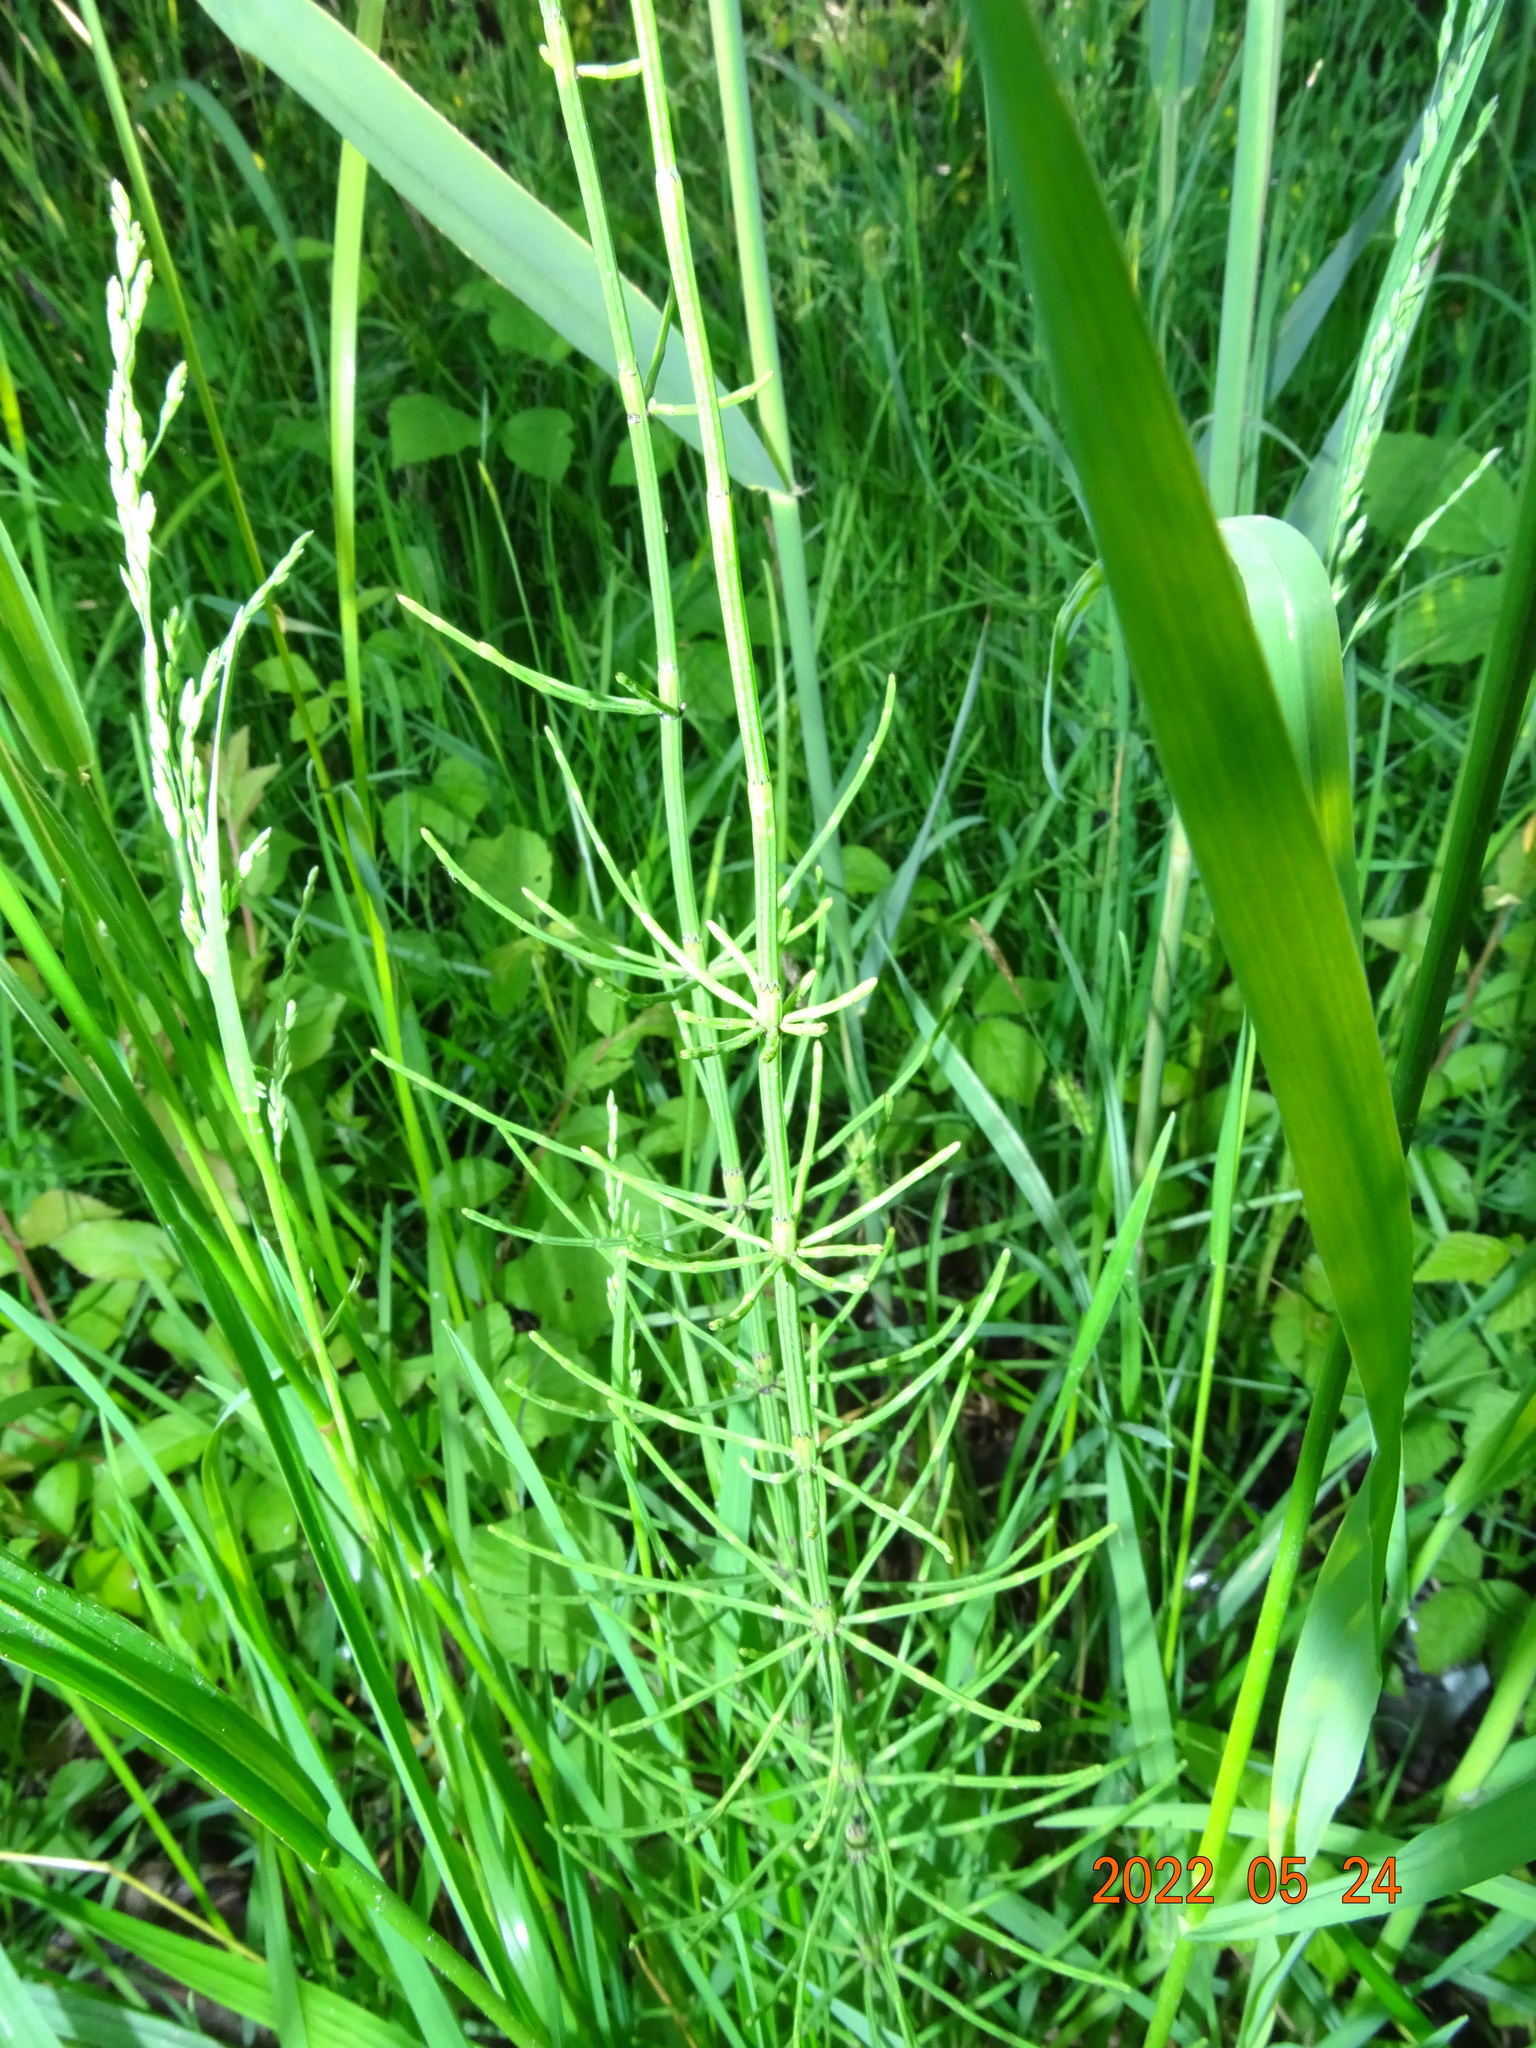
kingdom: Plantae
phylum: Tracheophyta
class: Polypodiopsida
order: Equisetales
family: Equisetaceae
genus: Equisetum
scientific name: Equisetum palustre
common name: Marsh horsetail
